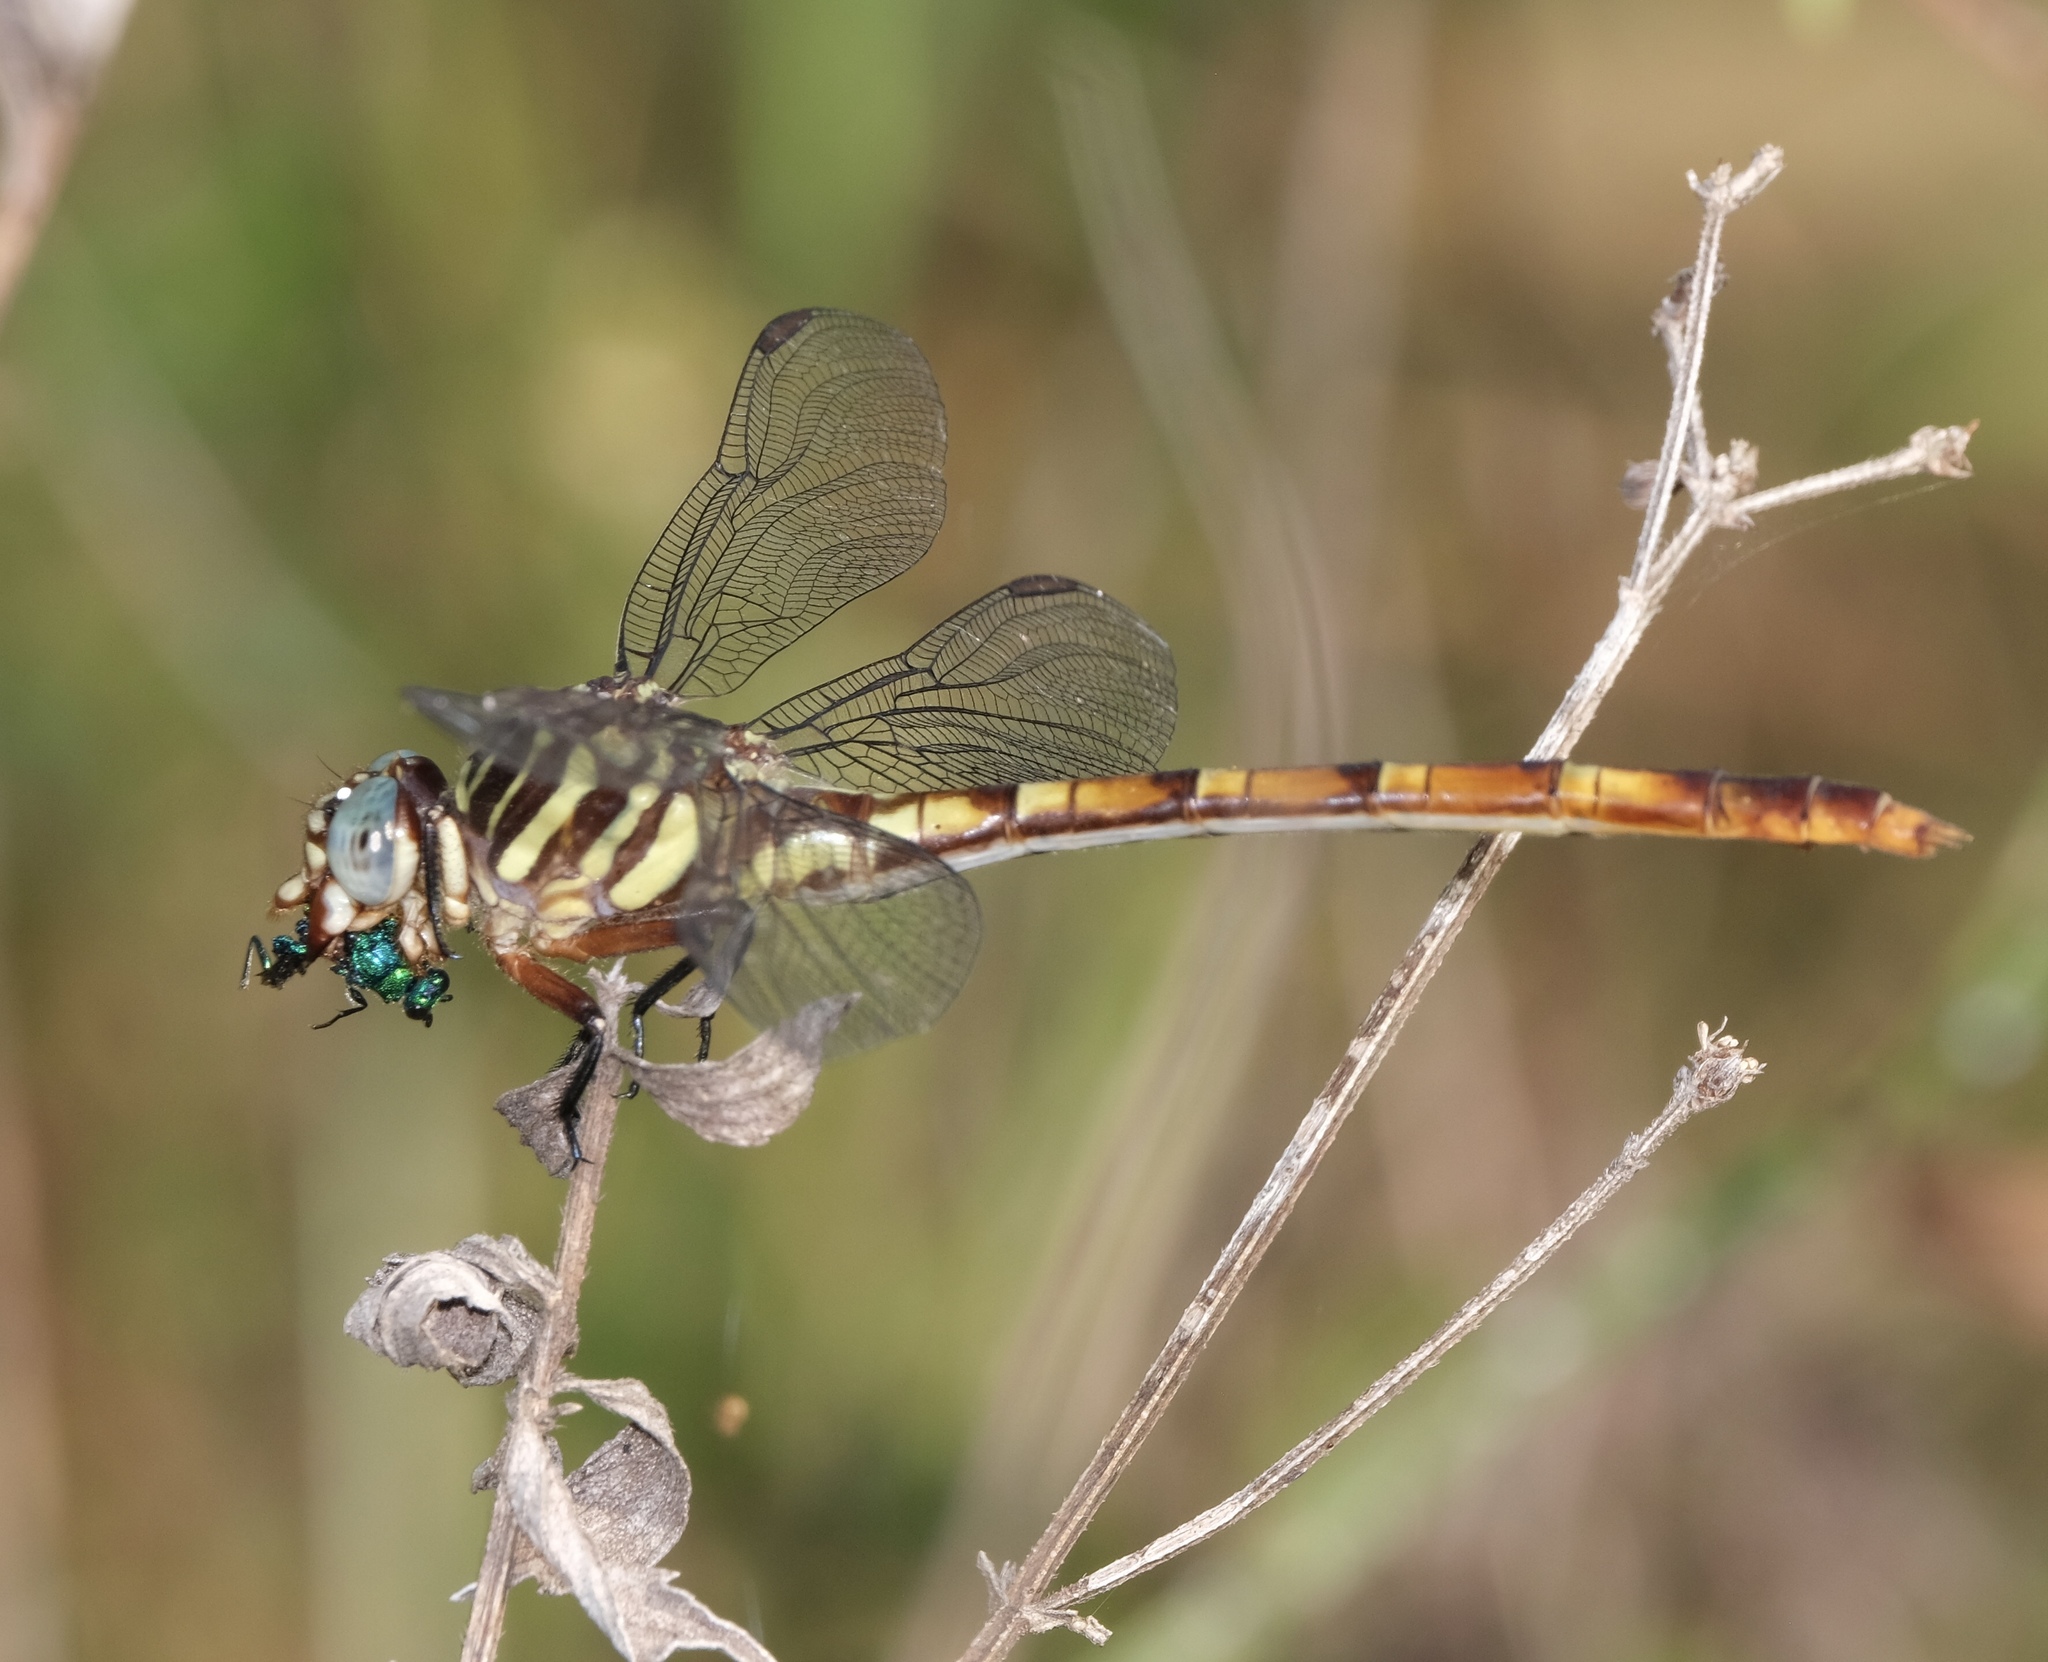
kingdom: Animalia
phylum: Arthropoda
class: Insecta
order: Odonata
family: Gomphidae
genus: Aphylla
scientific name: Aphylla angustifolia
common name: Broad-striped forceptail
